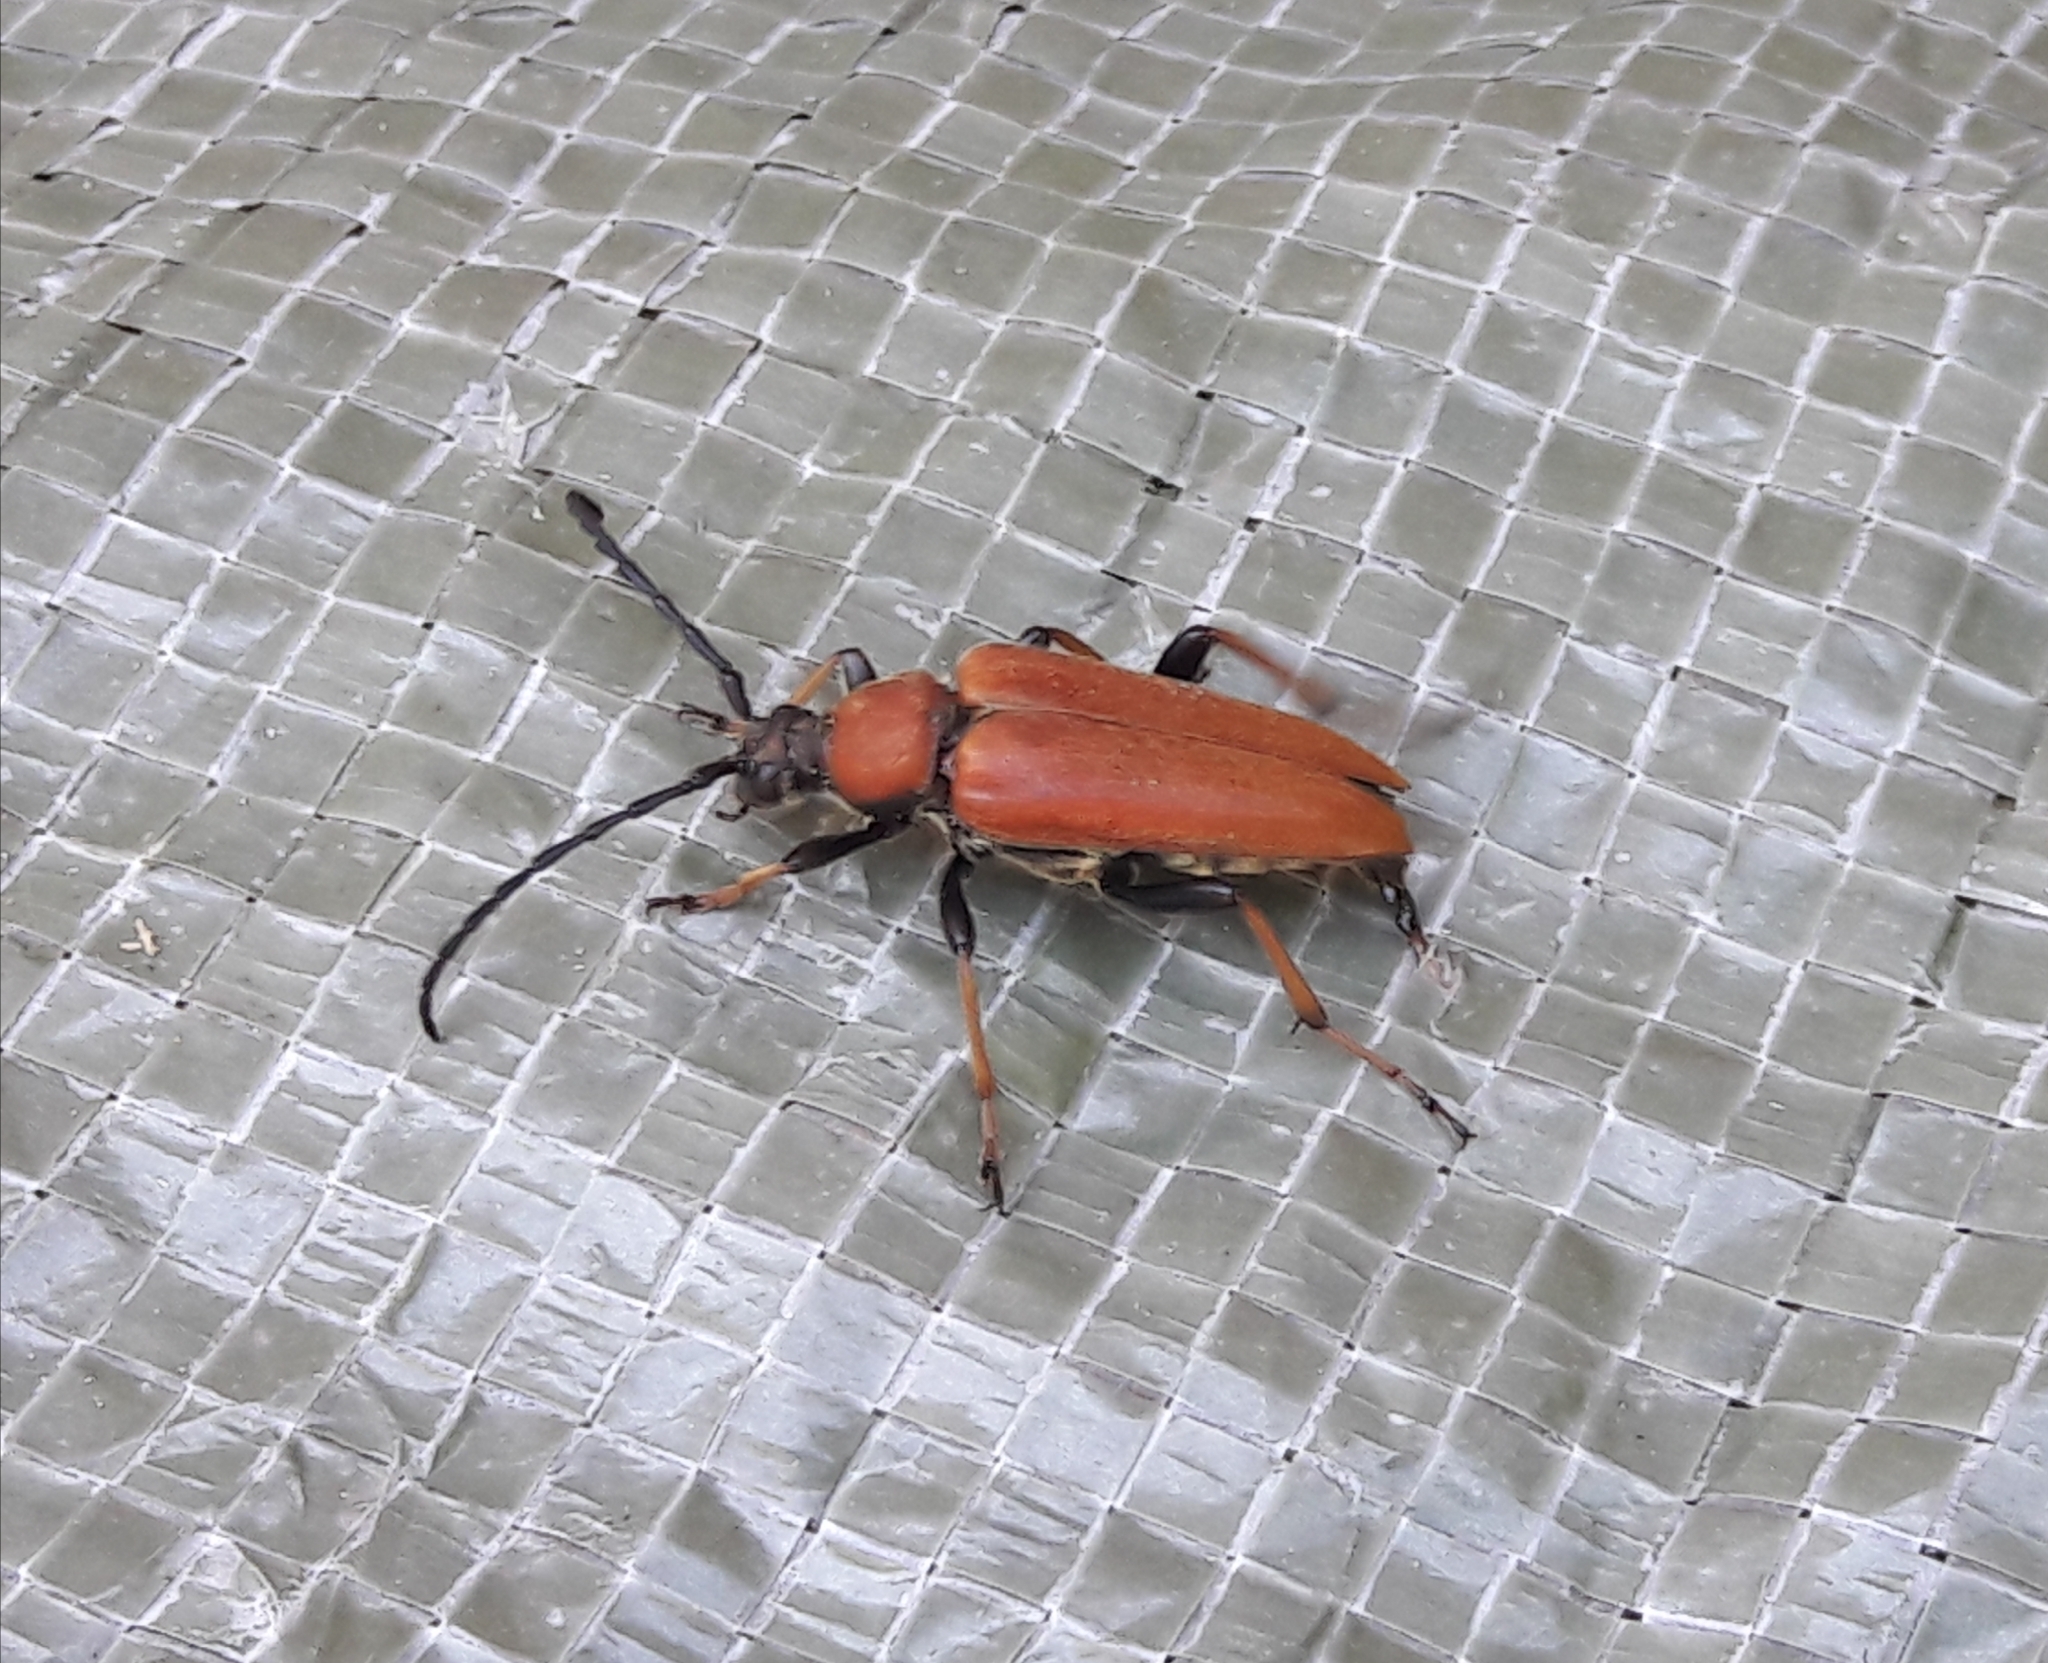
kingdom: Animalia
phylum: Arthropoda
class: Insecta
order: Coleoptera
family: Cerambycidae
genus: Stictoleptura
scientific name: Stictoleptura rubra
